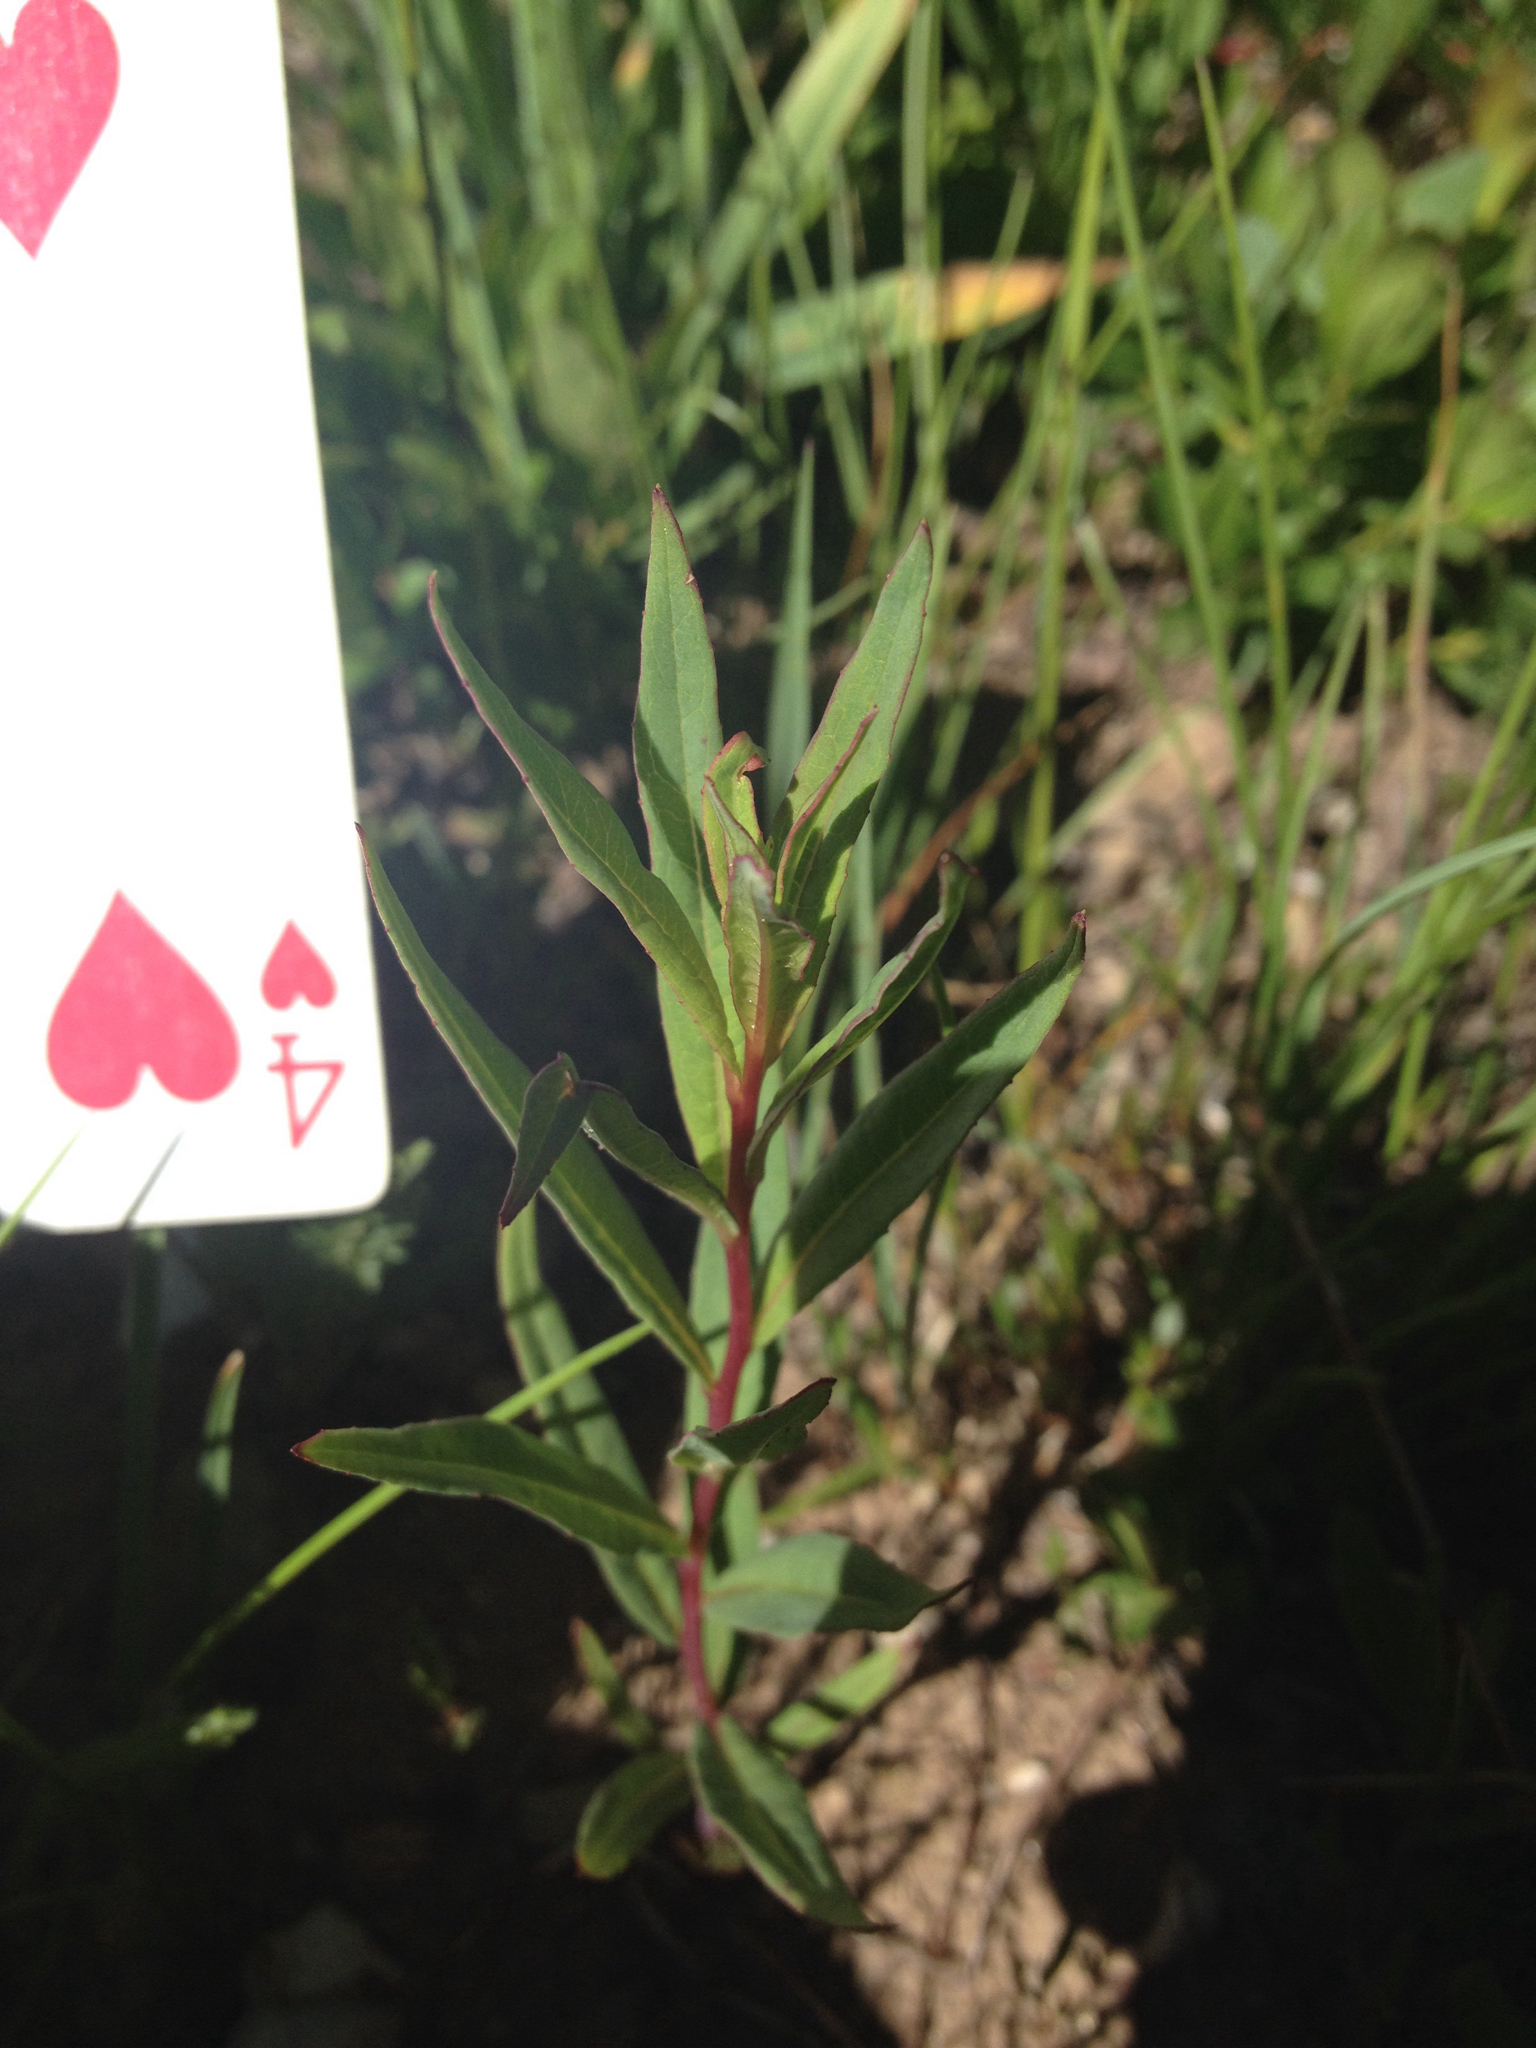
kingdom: Plantae
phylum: Tracheophyta
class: Magnoliopsida
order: Myrtales
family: Onagraceae
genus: Chamaenerion
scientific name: Chamaenerion angustifolium
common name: Fireweed
